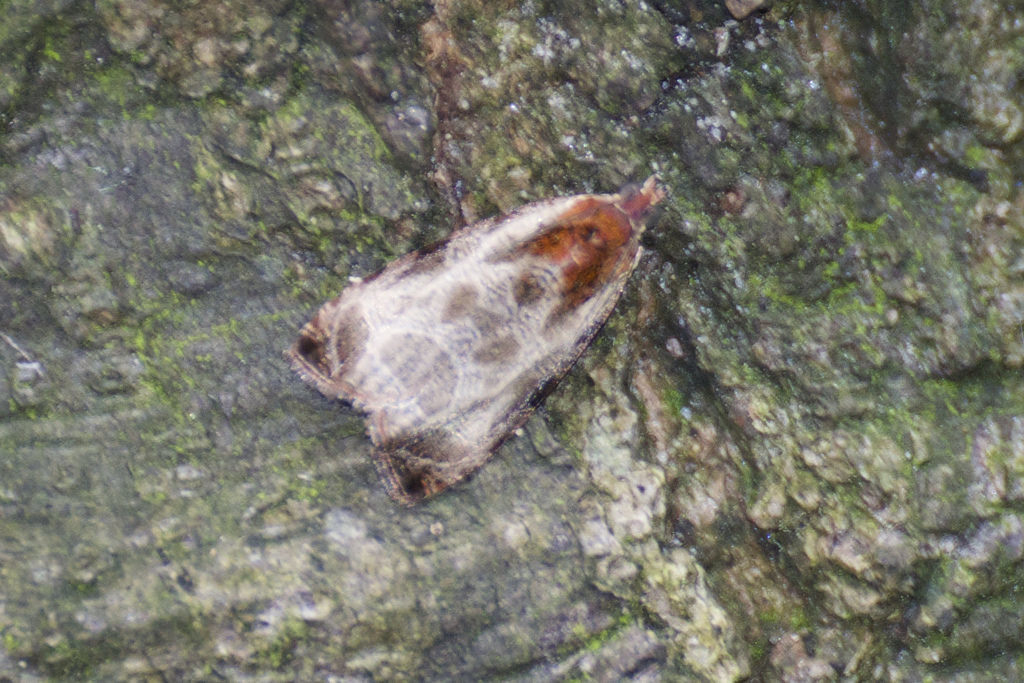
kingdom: Animalia
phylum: Arthropoda
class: Insecta
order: Lepidoptera
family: Tortricidae
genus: Olethreutes
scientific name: Olethreutes inornatana
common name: Inornate olethreutes moth
